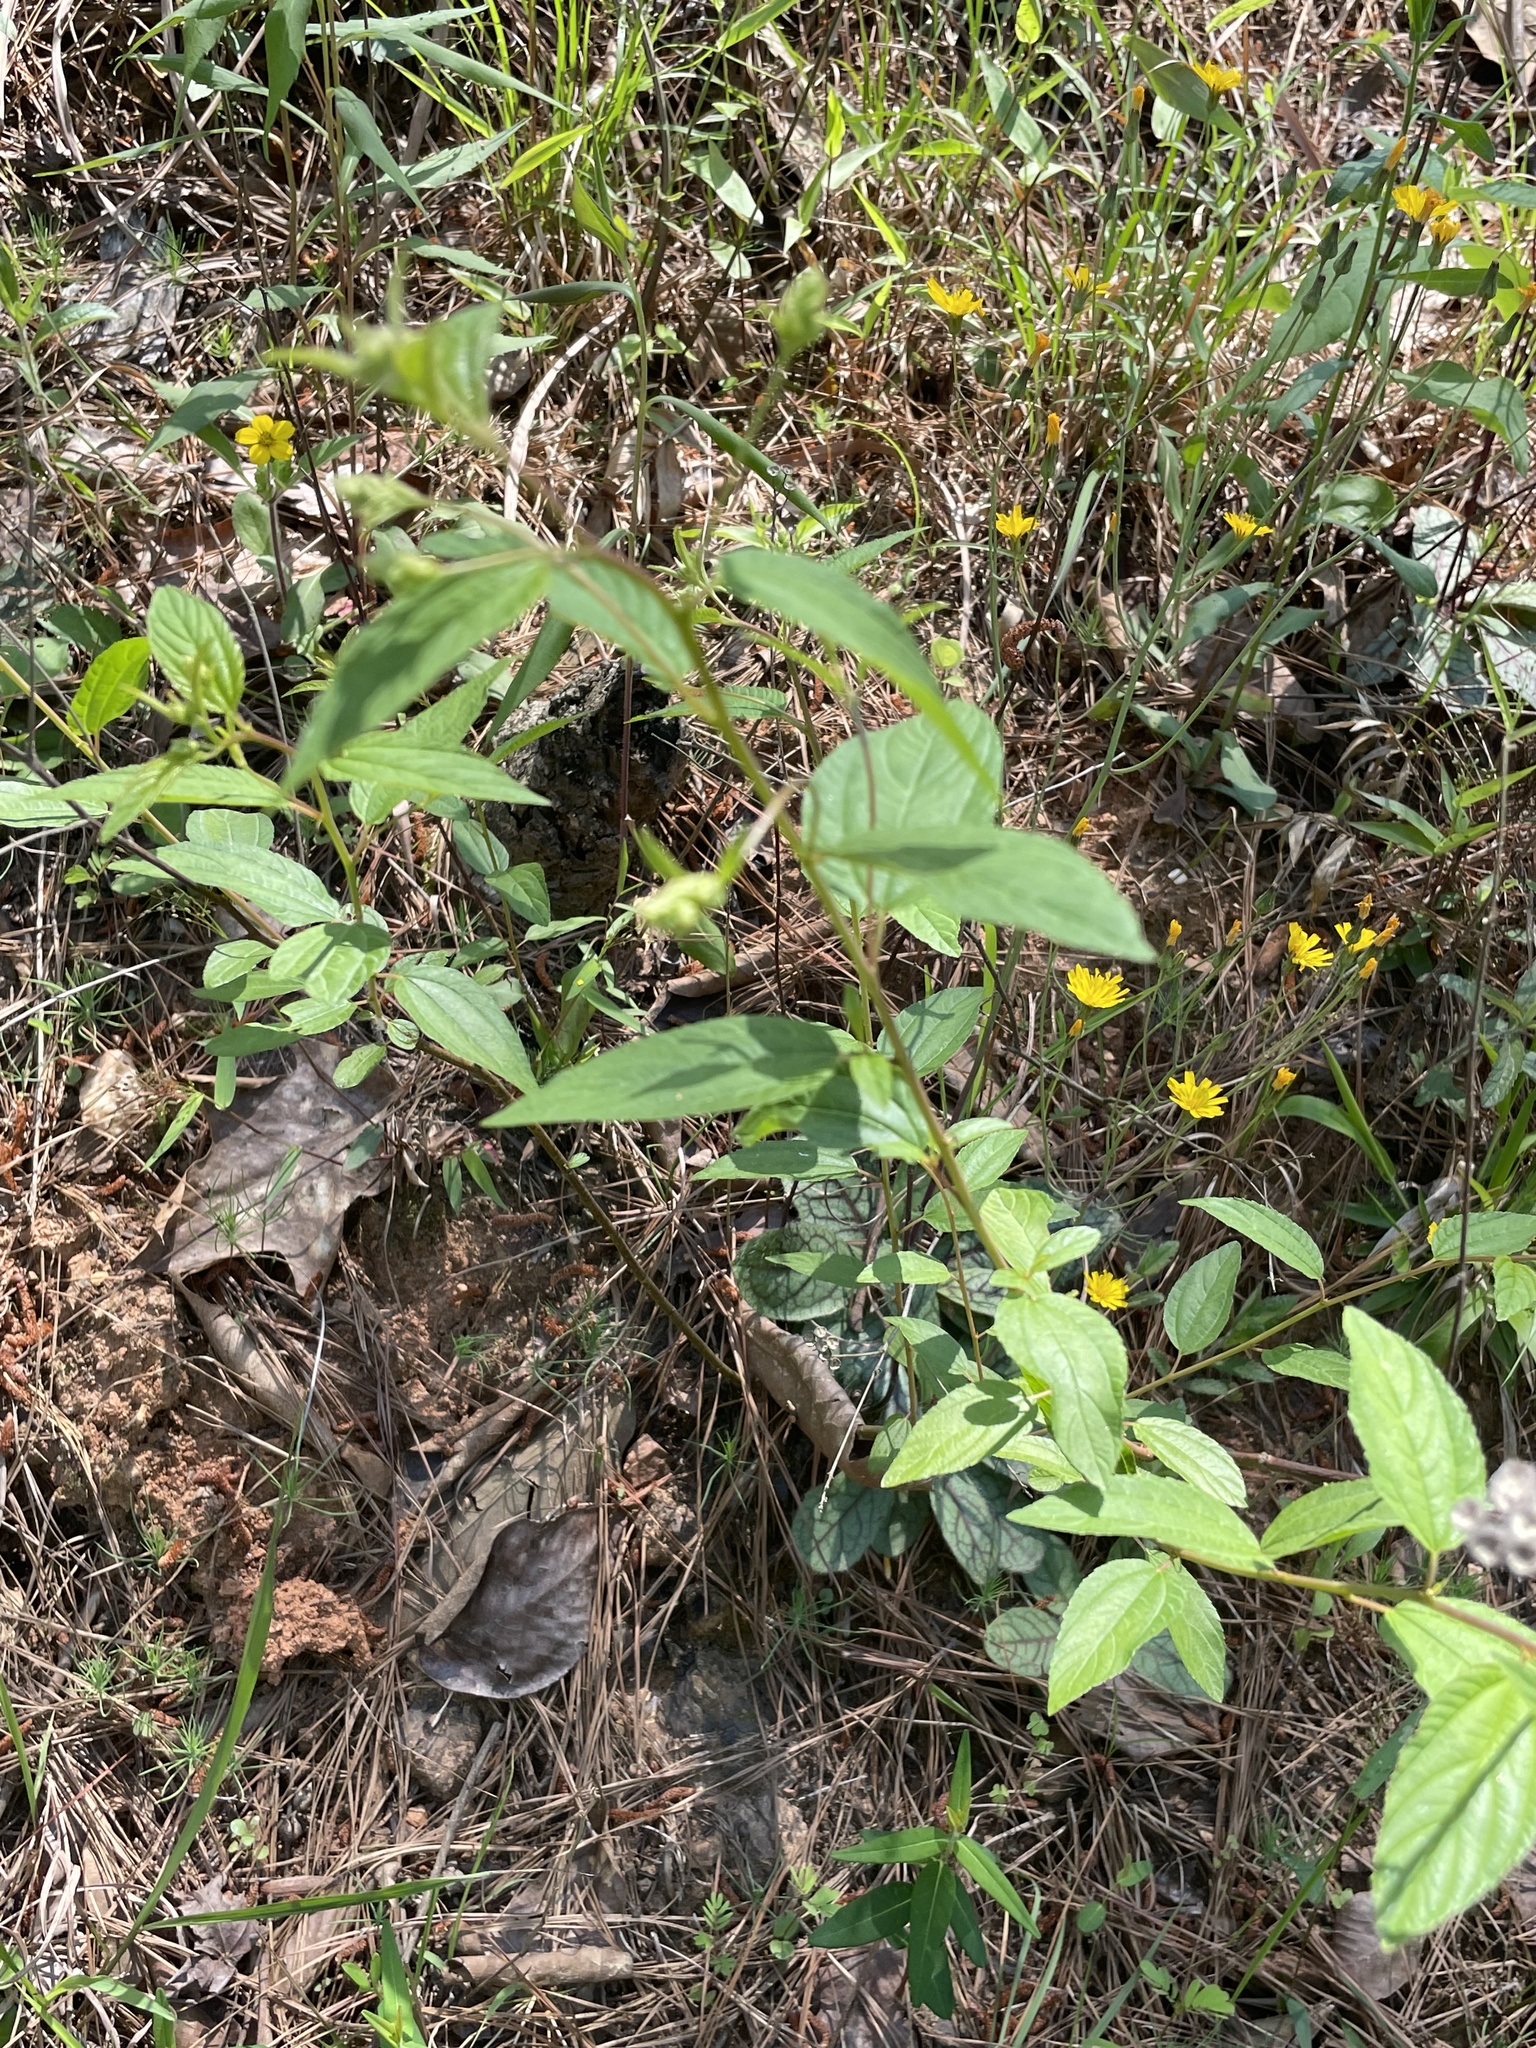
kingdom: Plantae
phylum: Tracheophyta
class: Magnoliopsida
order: Rosales
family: Rhamnaceae
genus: Ceanothus
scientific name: Ceanothus americanus
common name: Redroot
